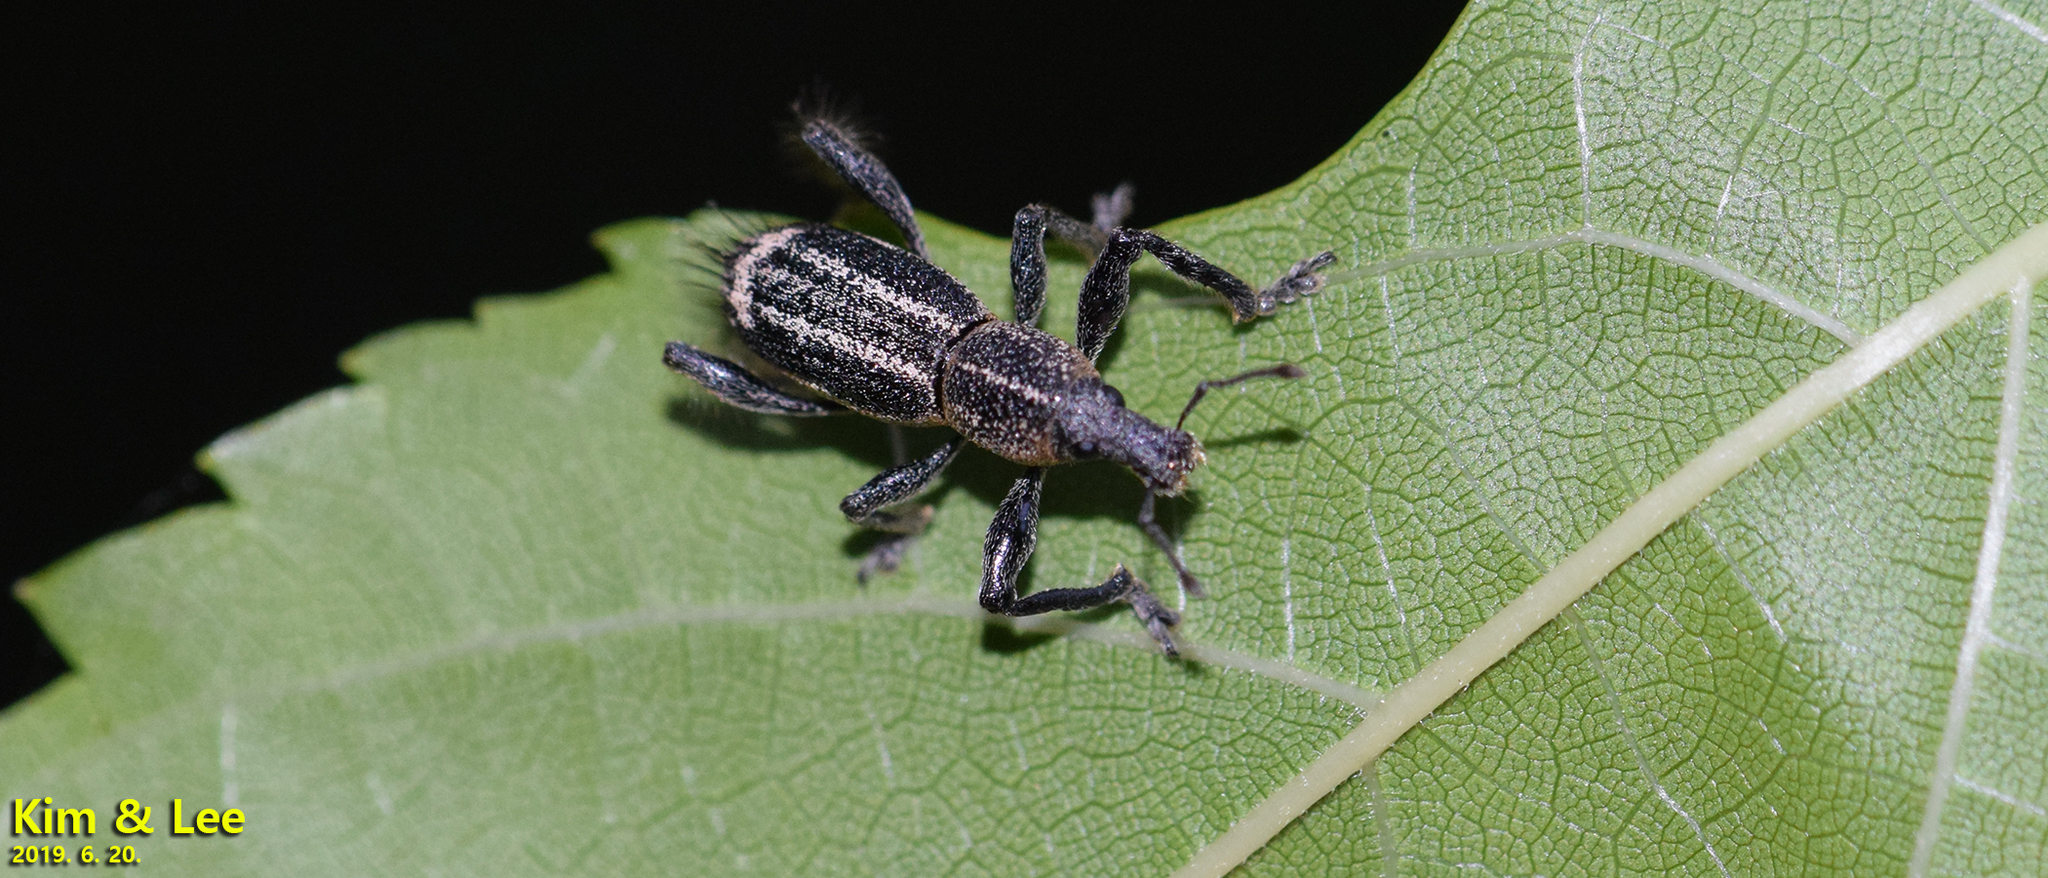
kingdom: Animalia
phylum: Arthropoda
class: Insecta
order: Coleoptera
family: Curculionidae
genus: Enaptorhinus
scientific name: Enaptorhinus granulatus
